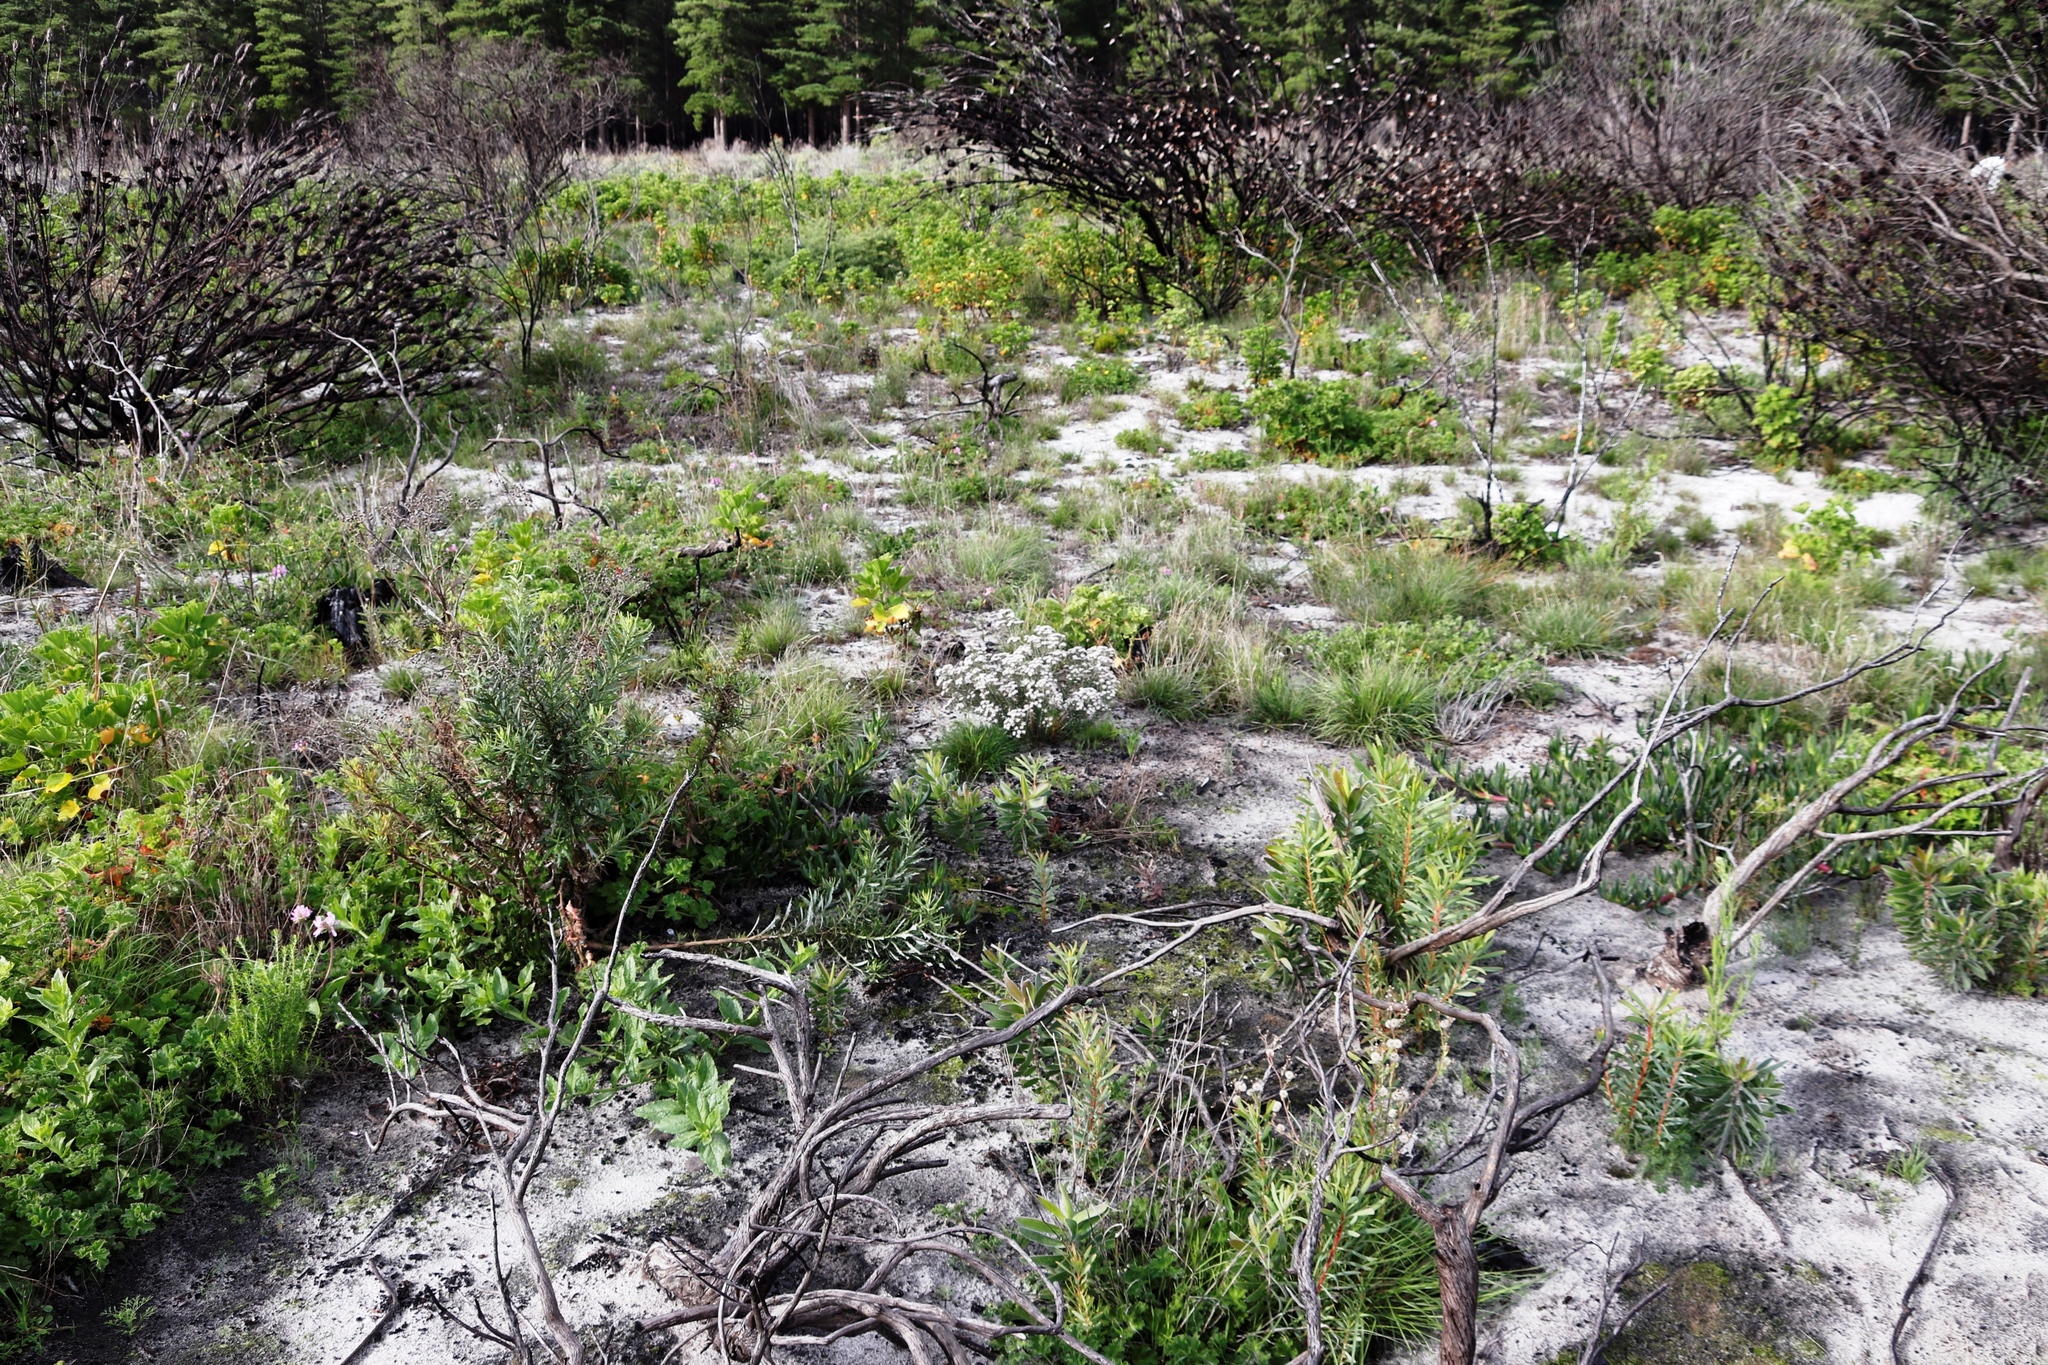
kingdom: Plantae
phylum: Tracheophyta
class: Magnoliopsida
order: Rosales
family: Rhamnaceae
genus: Trichocephalus
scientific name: Trichocephalus stipularis
